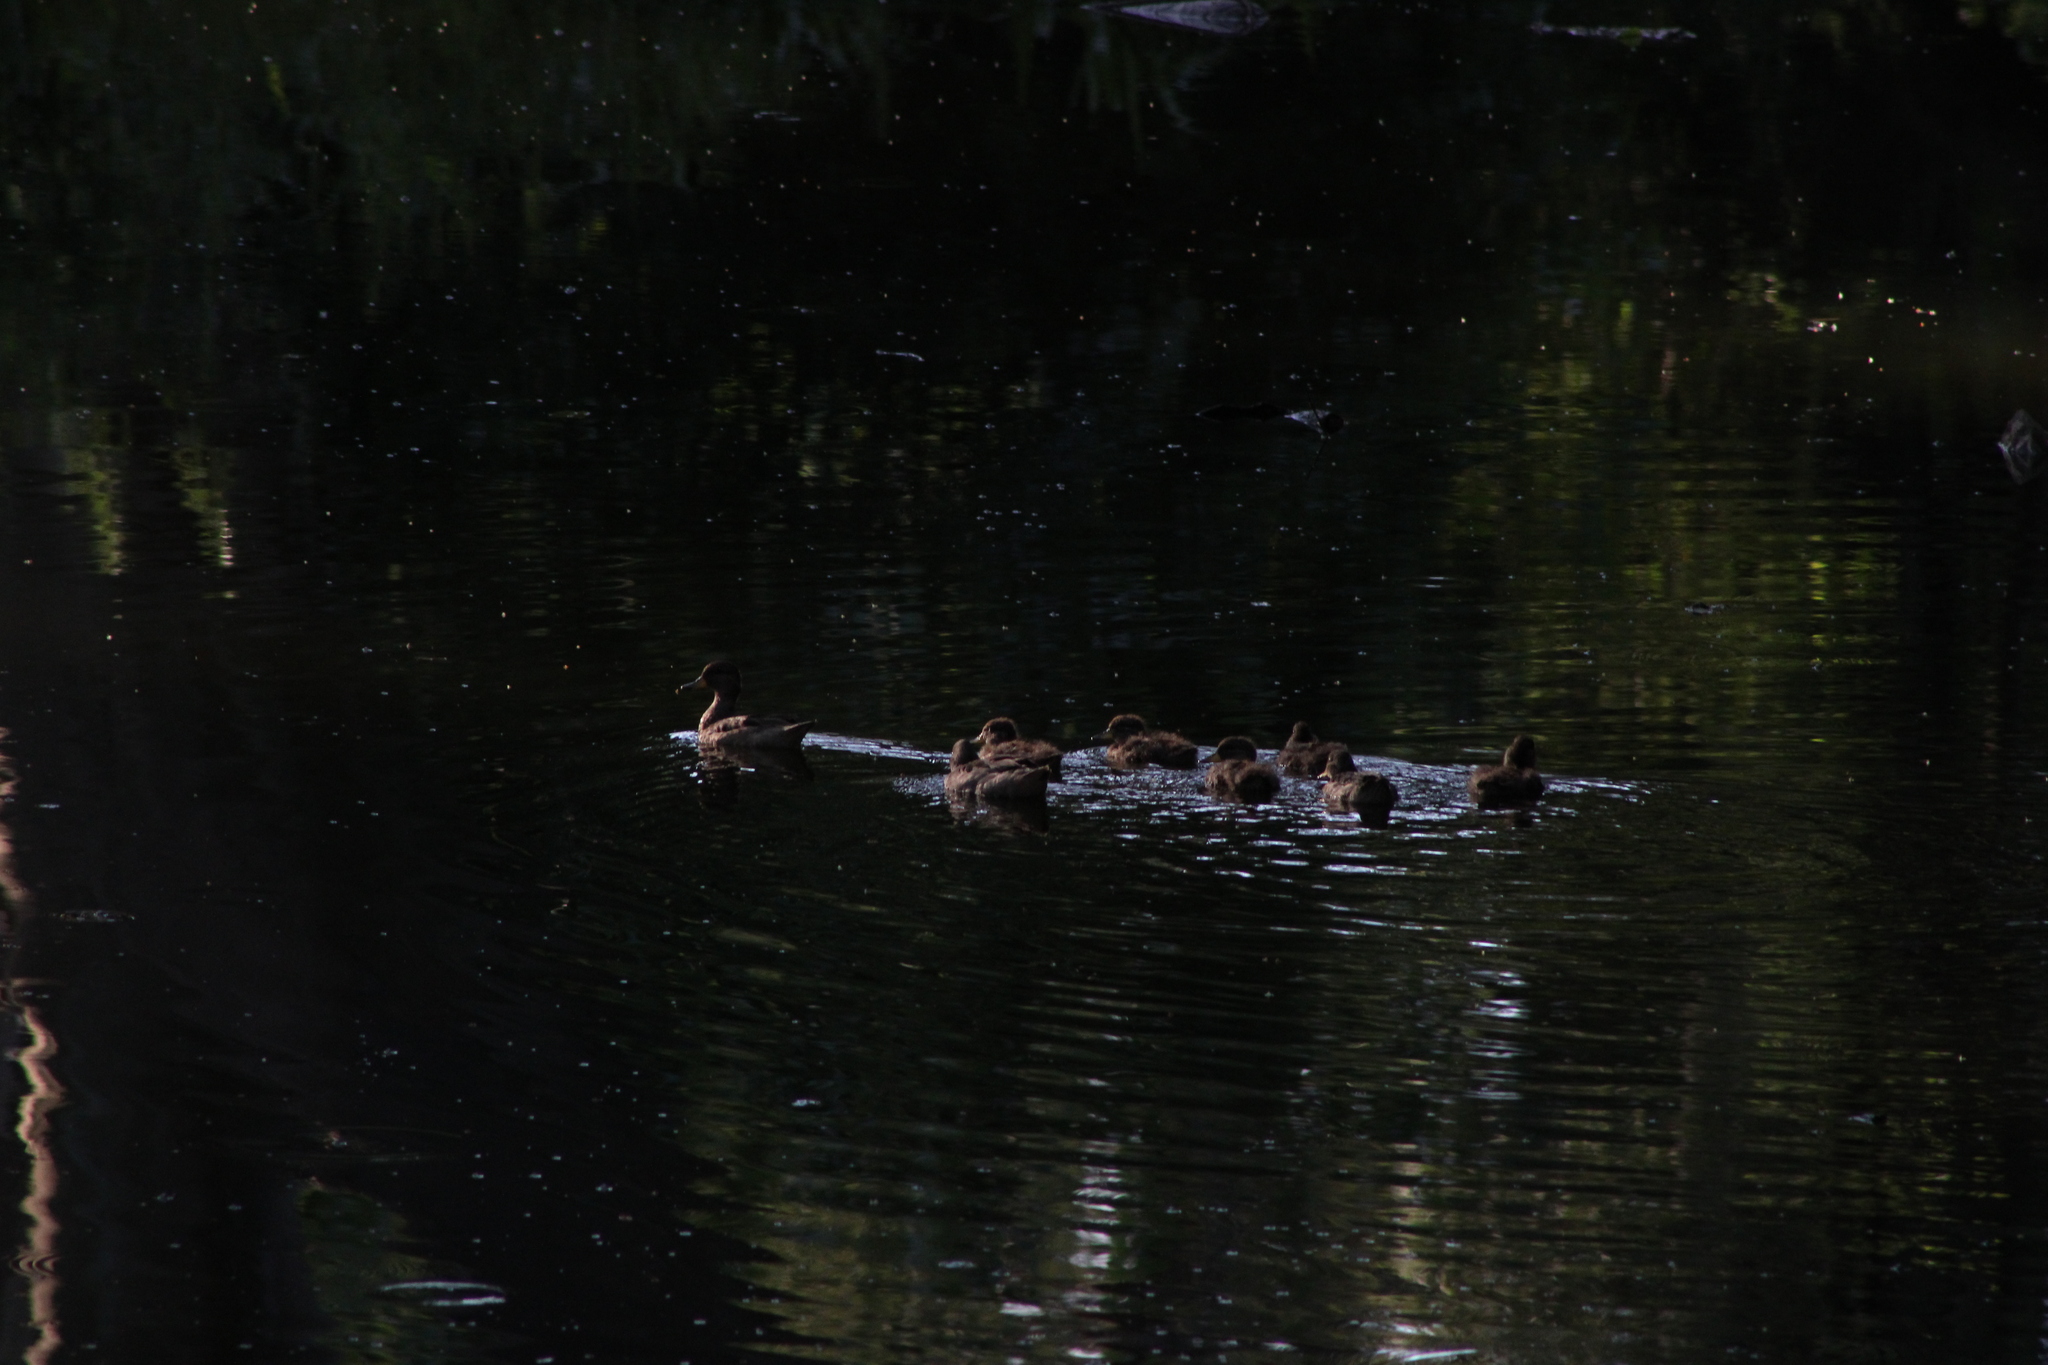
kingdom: Animalia
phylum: Chordata
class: Aves
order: Anseriformes
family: Anatidae
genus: Anas
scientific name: Anas flavirostris
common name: Yellow-billed teal
